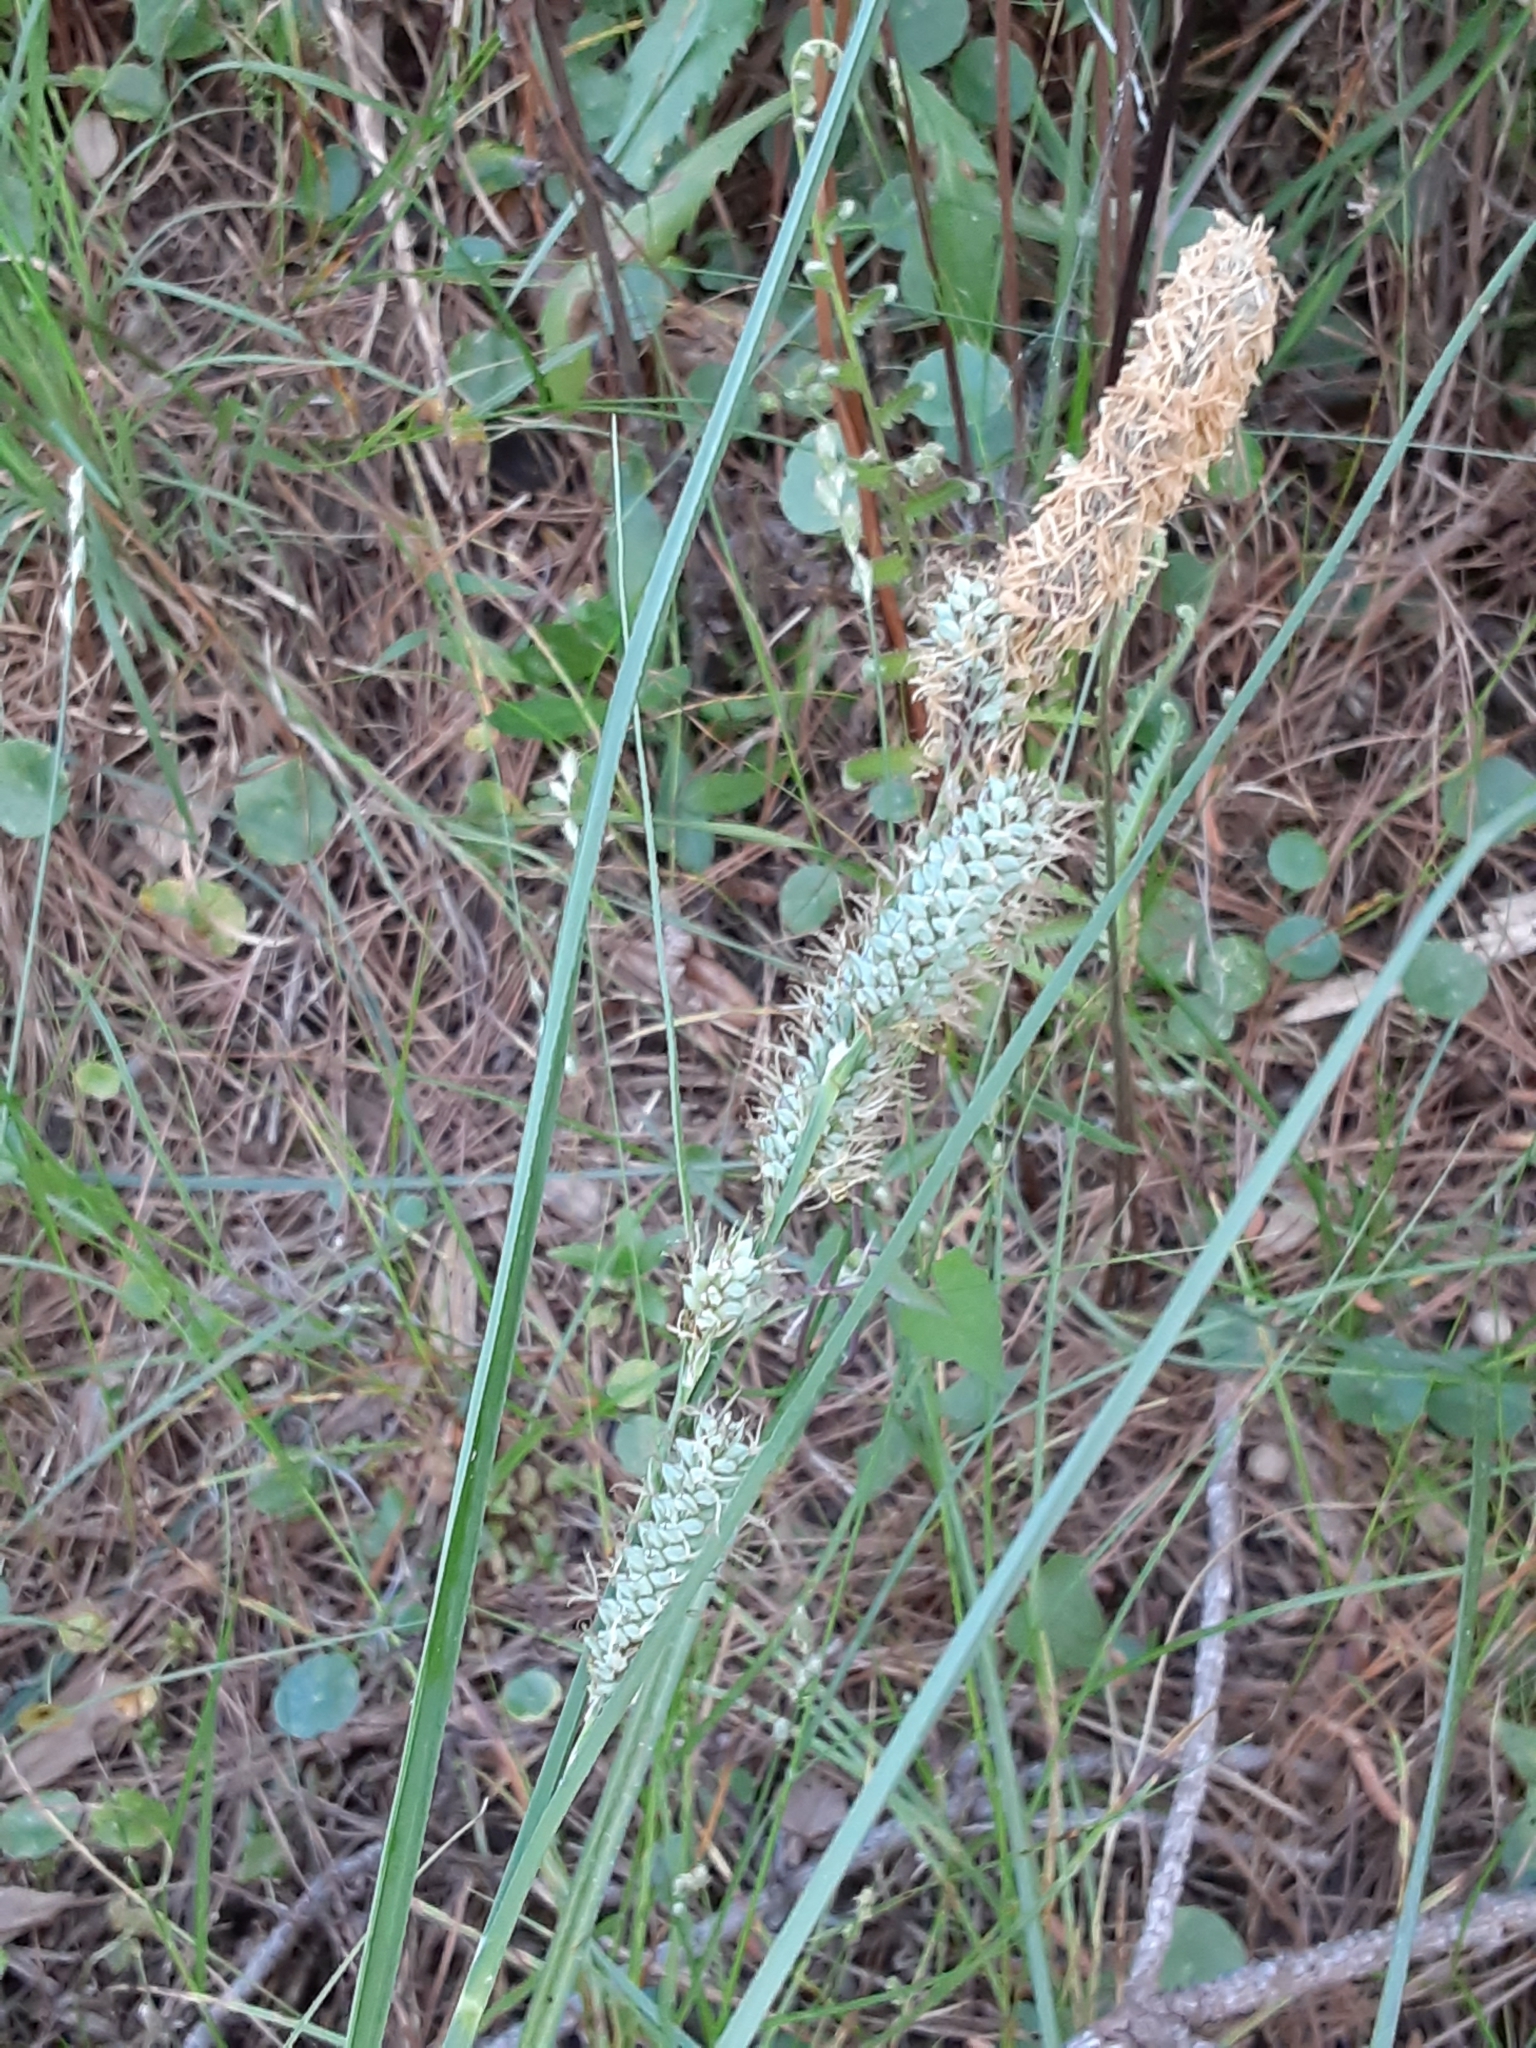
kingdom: Plantae
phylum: Tracheophyta
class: Liliopsida
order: Poales
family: Cyperaceae
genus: Carex
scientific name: Carex verrucosa
